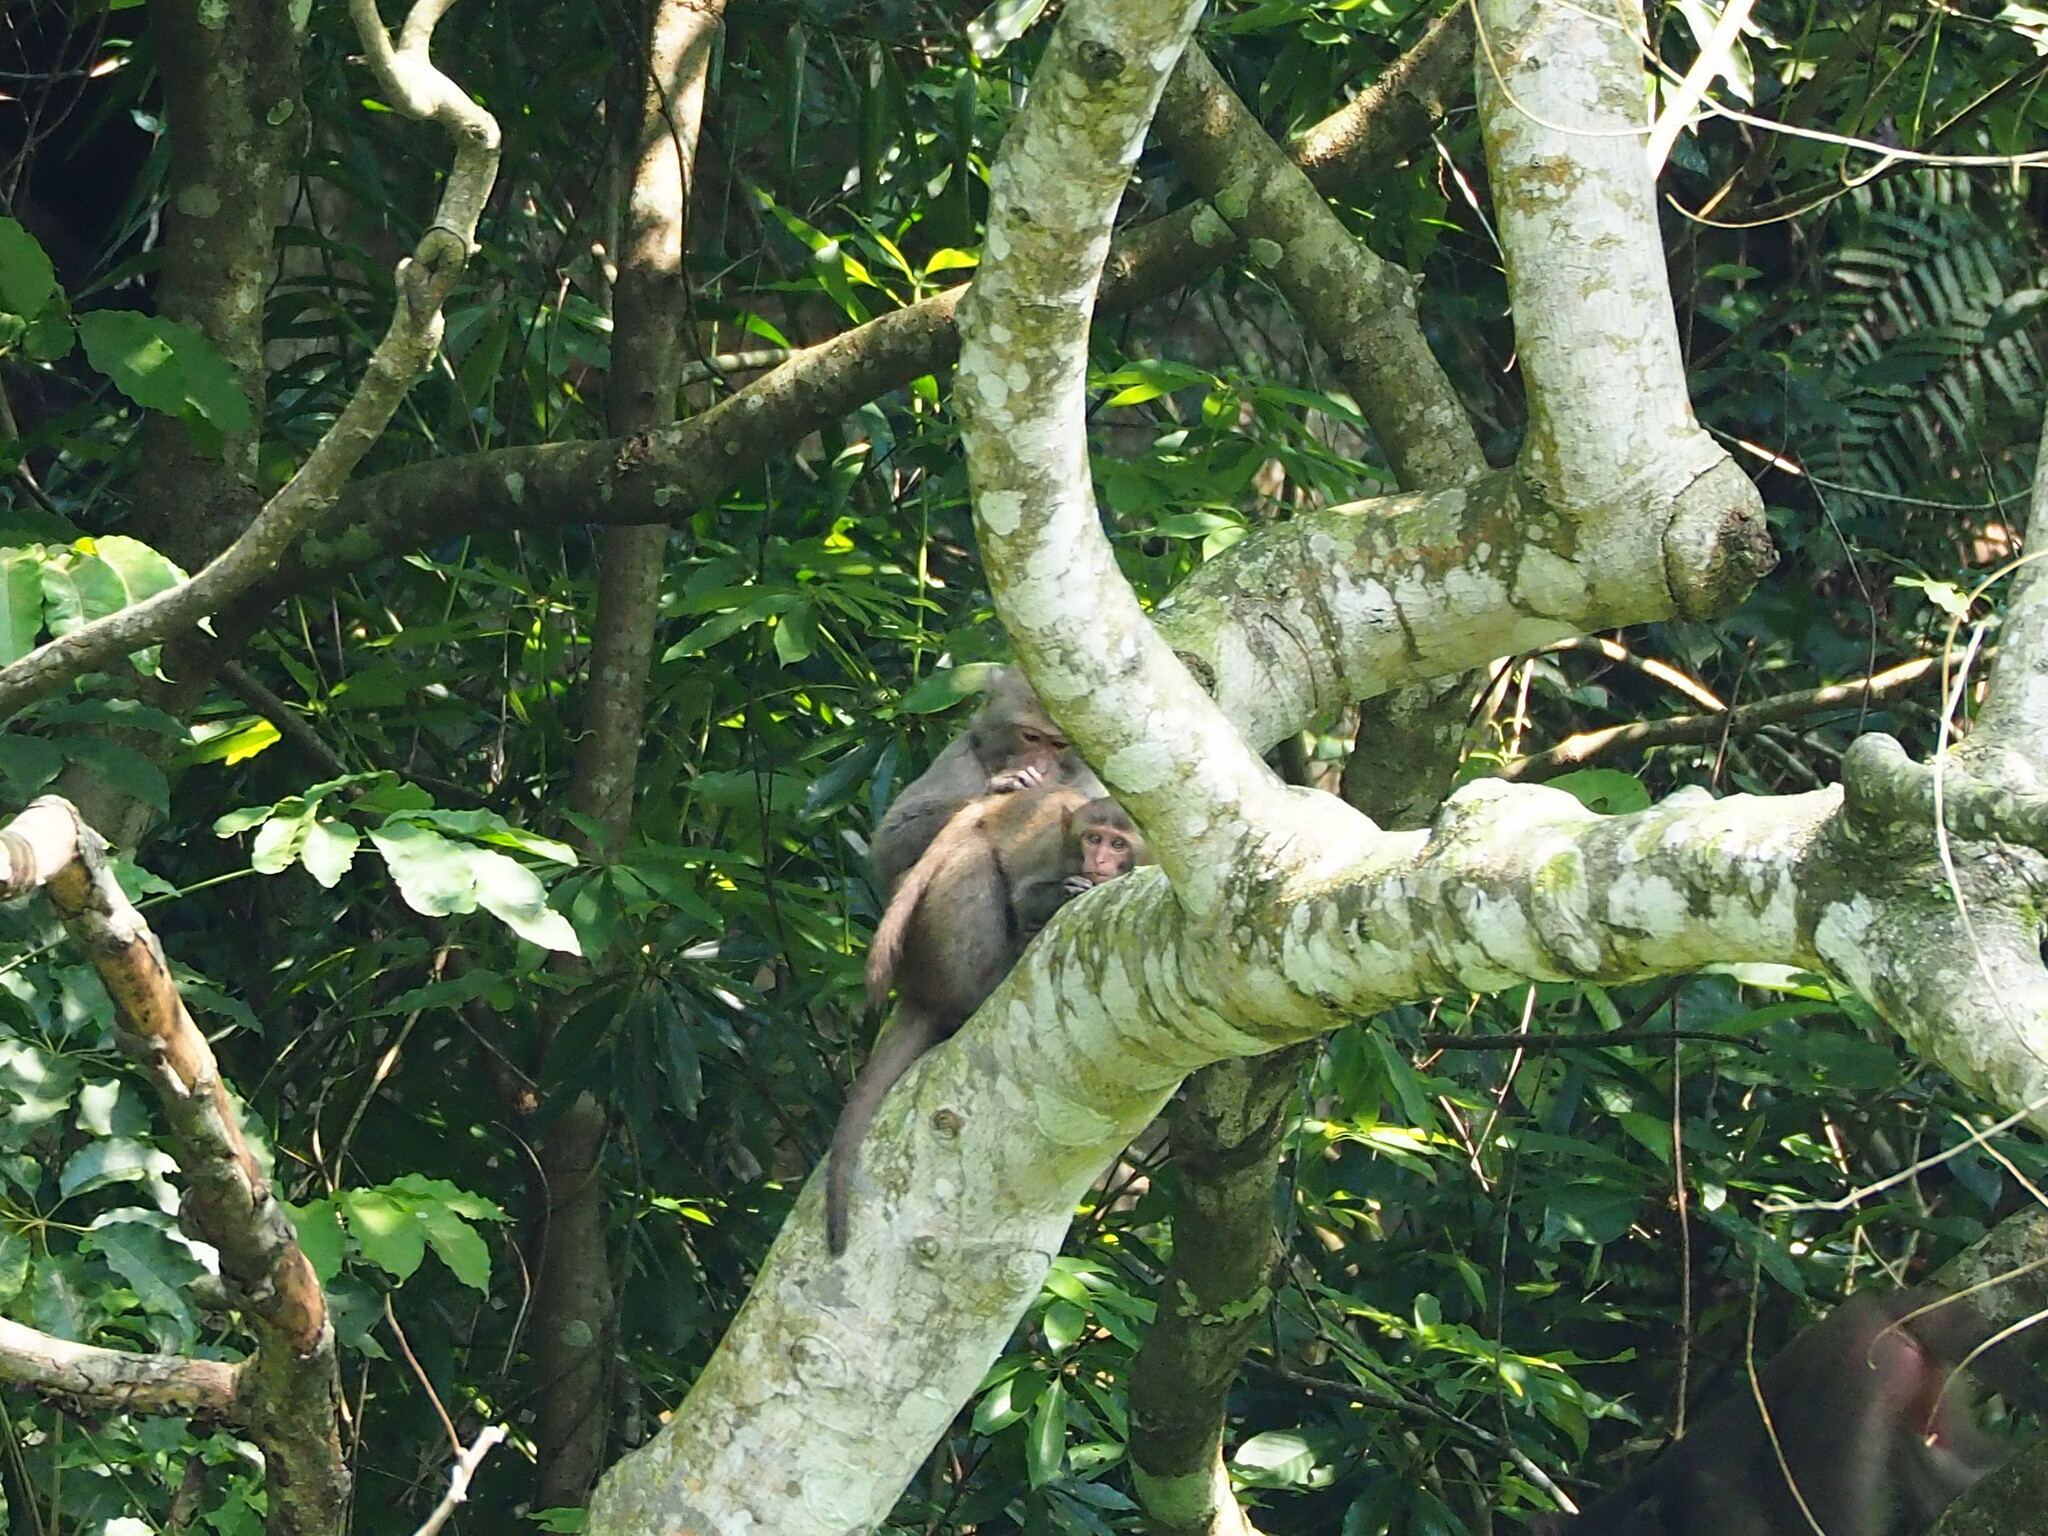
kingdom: Animalia
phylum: Chordata
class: Mammalia
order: Primates
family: Cercopithecidae
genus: Macaca
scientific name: Macaca cyclopis
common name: Formosan rock macaque
